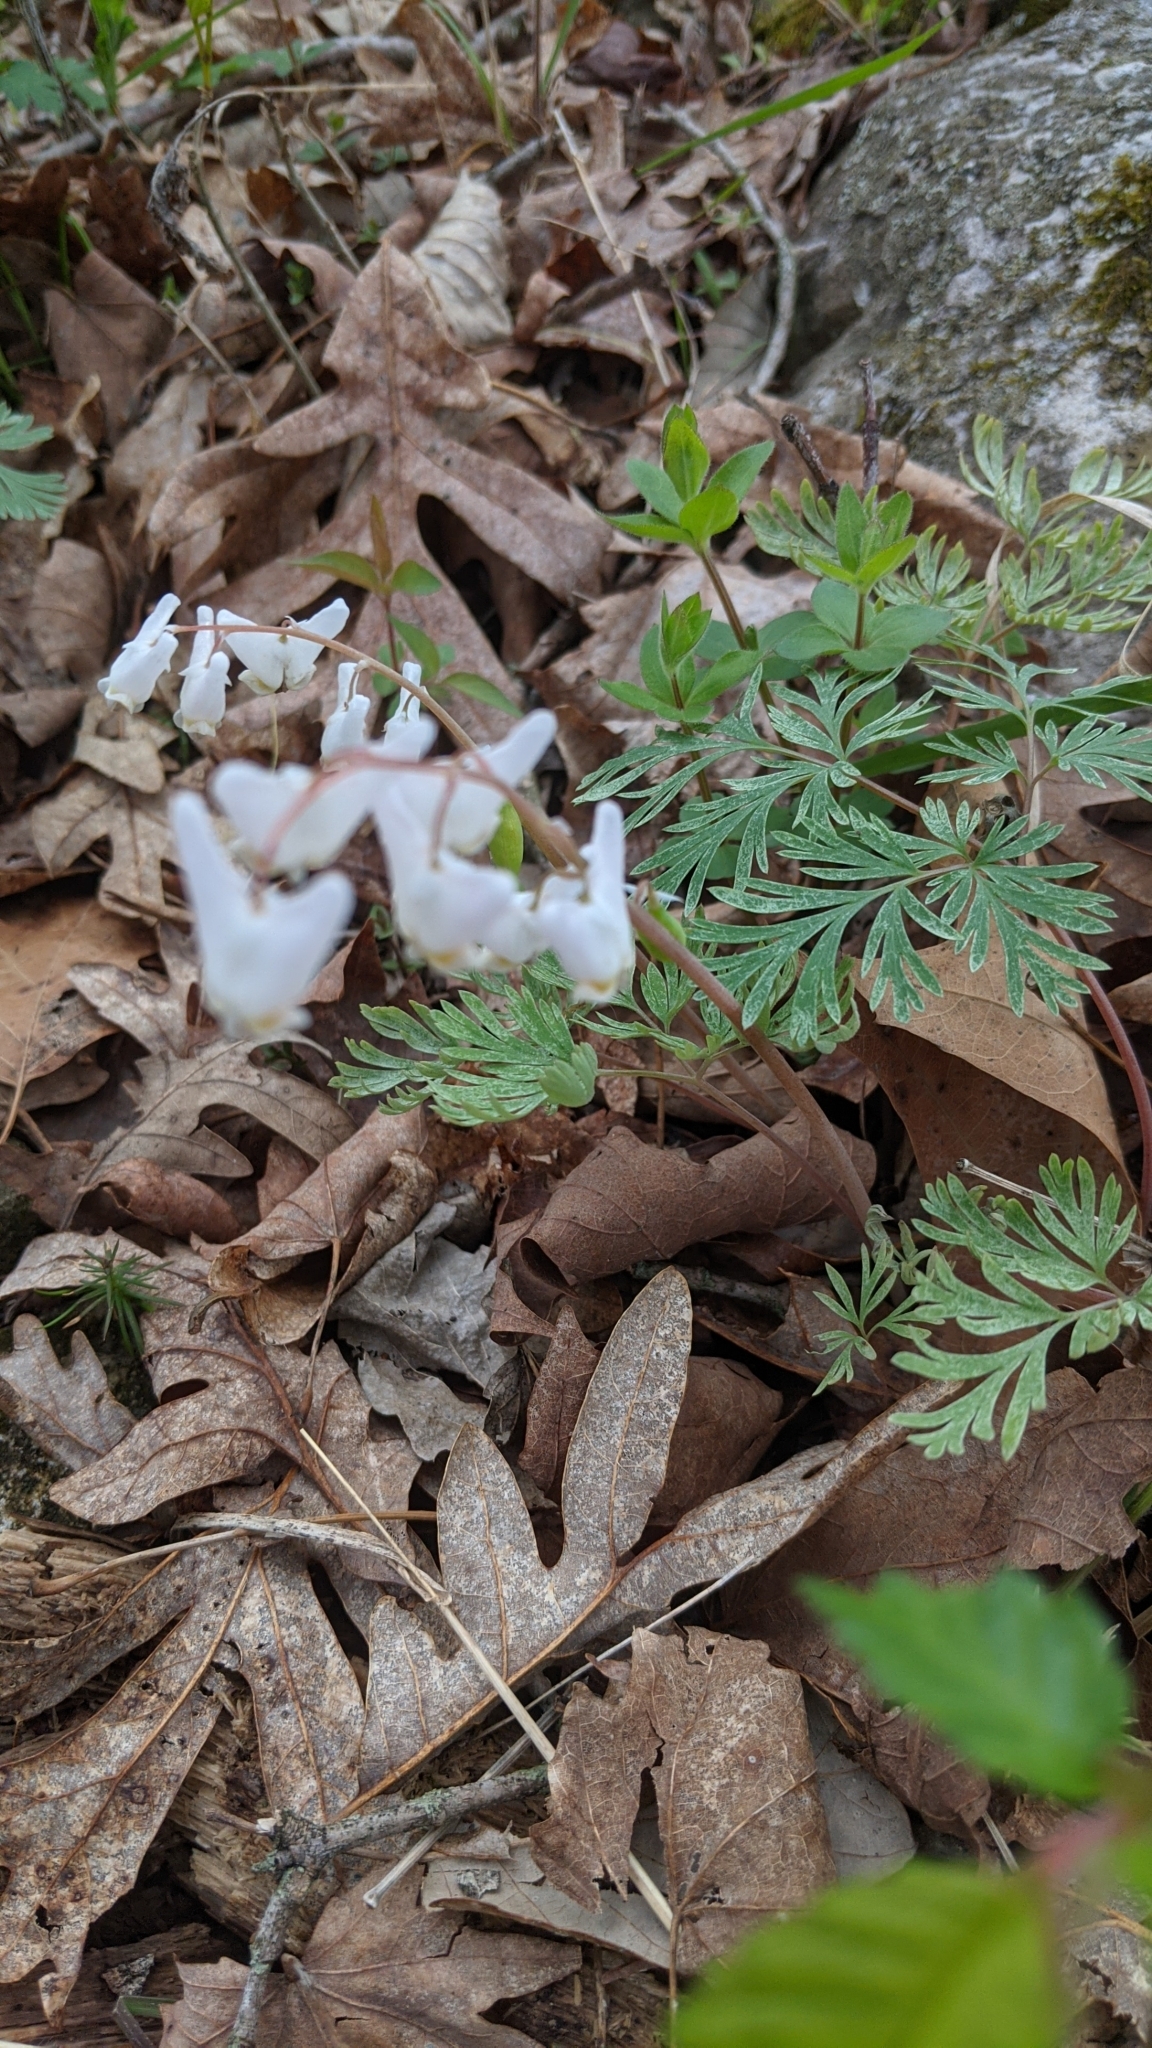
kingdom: Plantae
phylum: Tracheophyta
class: Magnoliopsida
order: Ranunculales
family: Papaveraceae
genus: Dicentra
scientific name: Dicentra cucullaria
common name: Dutchman's breeches
